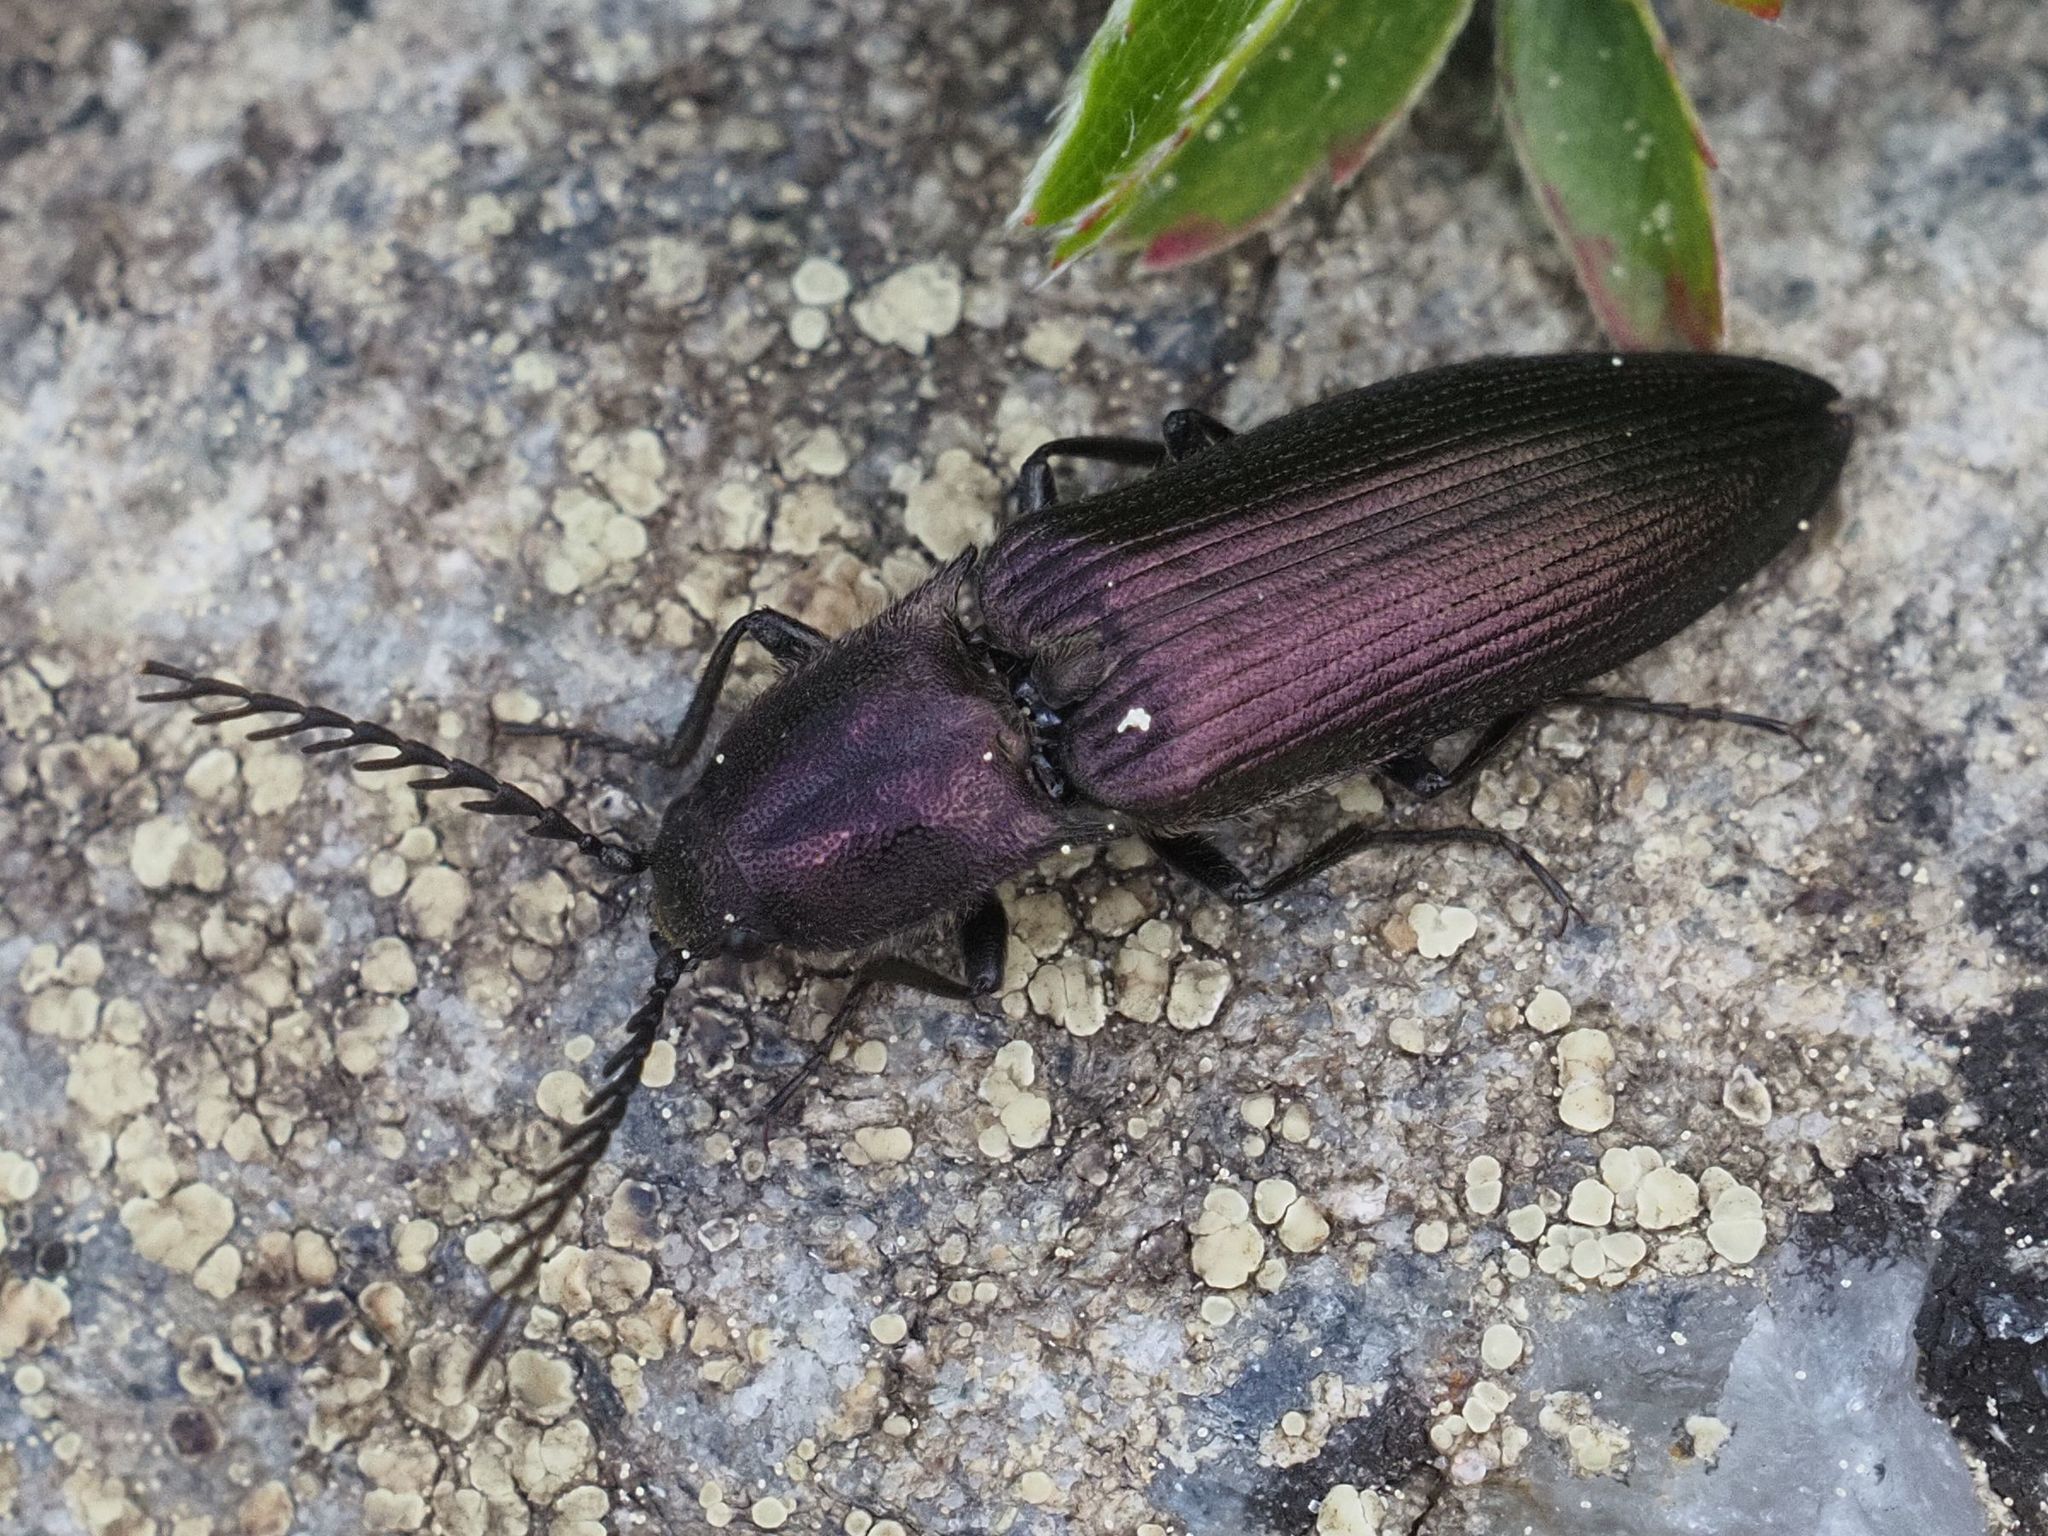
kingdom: Animalia
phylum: Arthropoda
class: Insecta
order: Coleoptera
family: Elateridae
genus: Ctenicera
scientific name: Ctenicera cuprea
